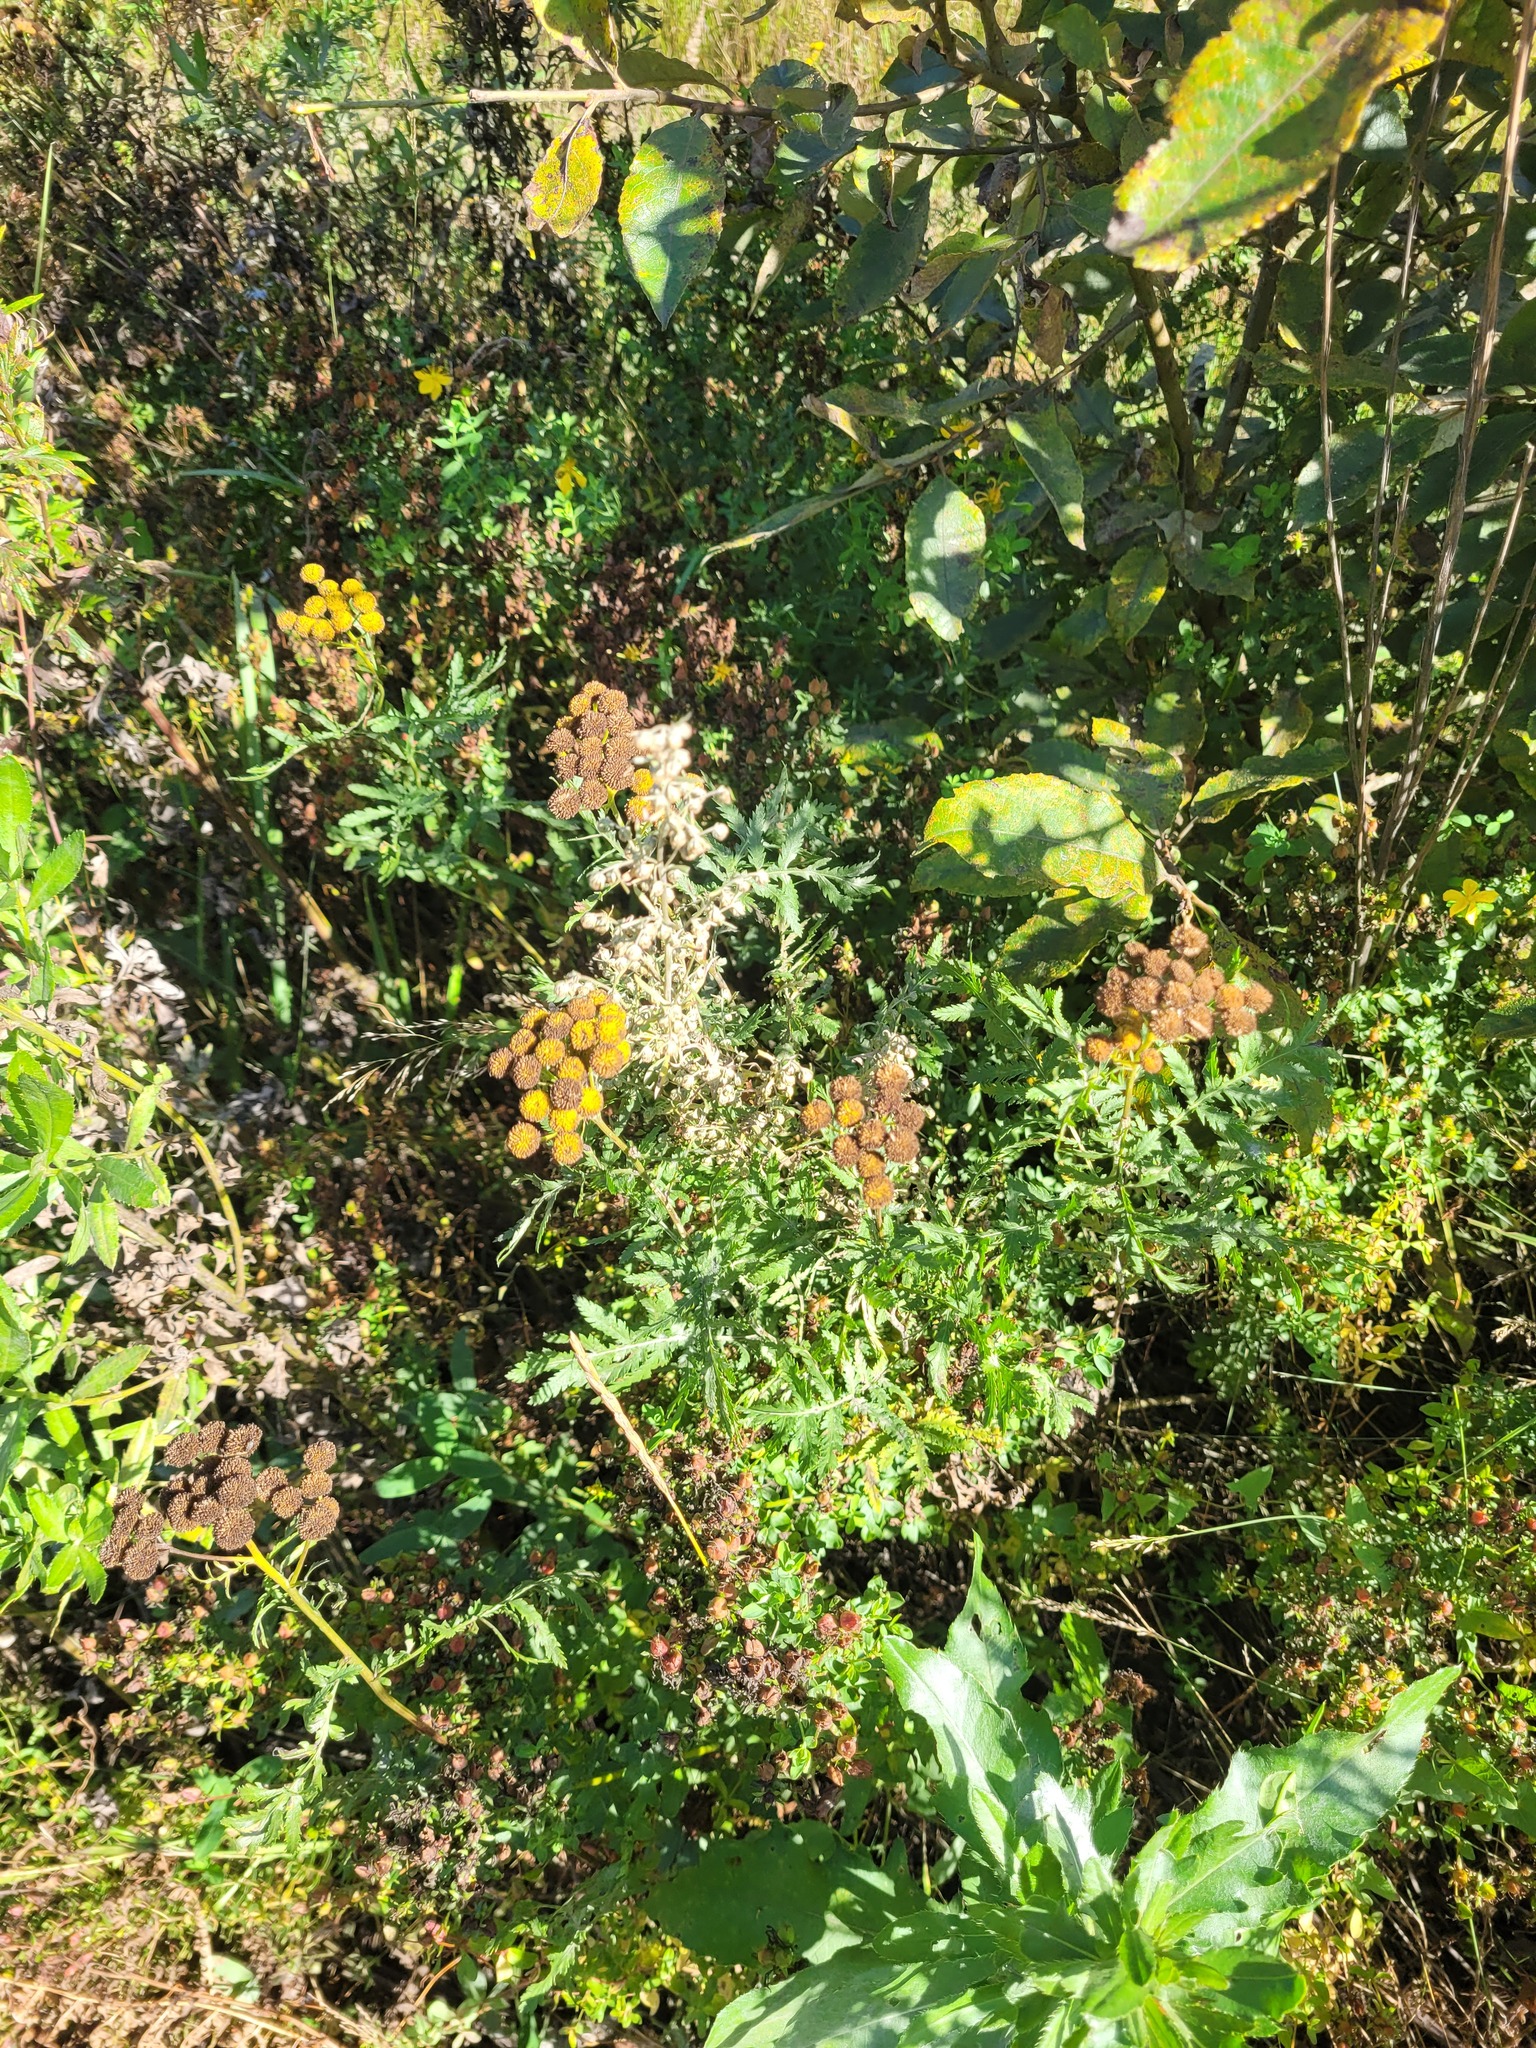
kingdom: Plantae
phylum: Tracheophyta
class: Magnoliopsida
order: Asterales
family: Asteraceae
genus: Tanacetum
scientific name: Tanacetum vulgare
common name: Common tansy
